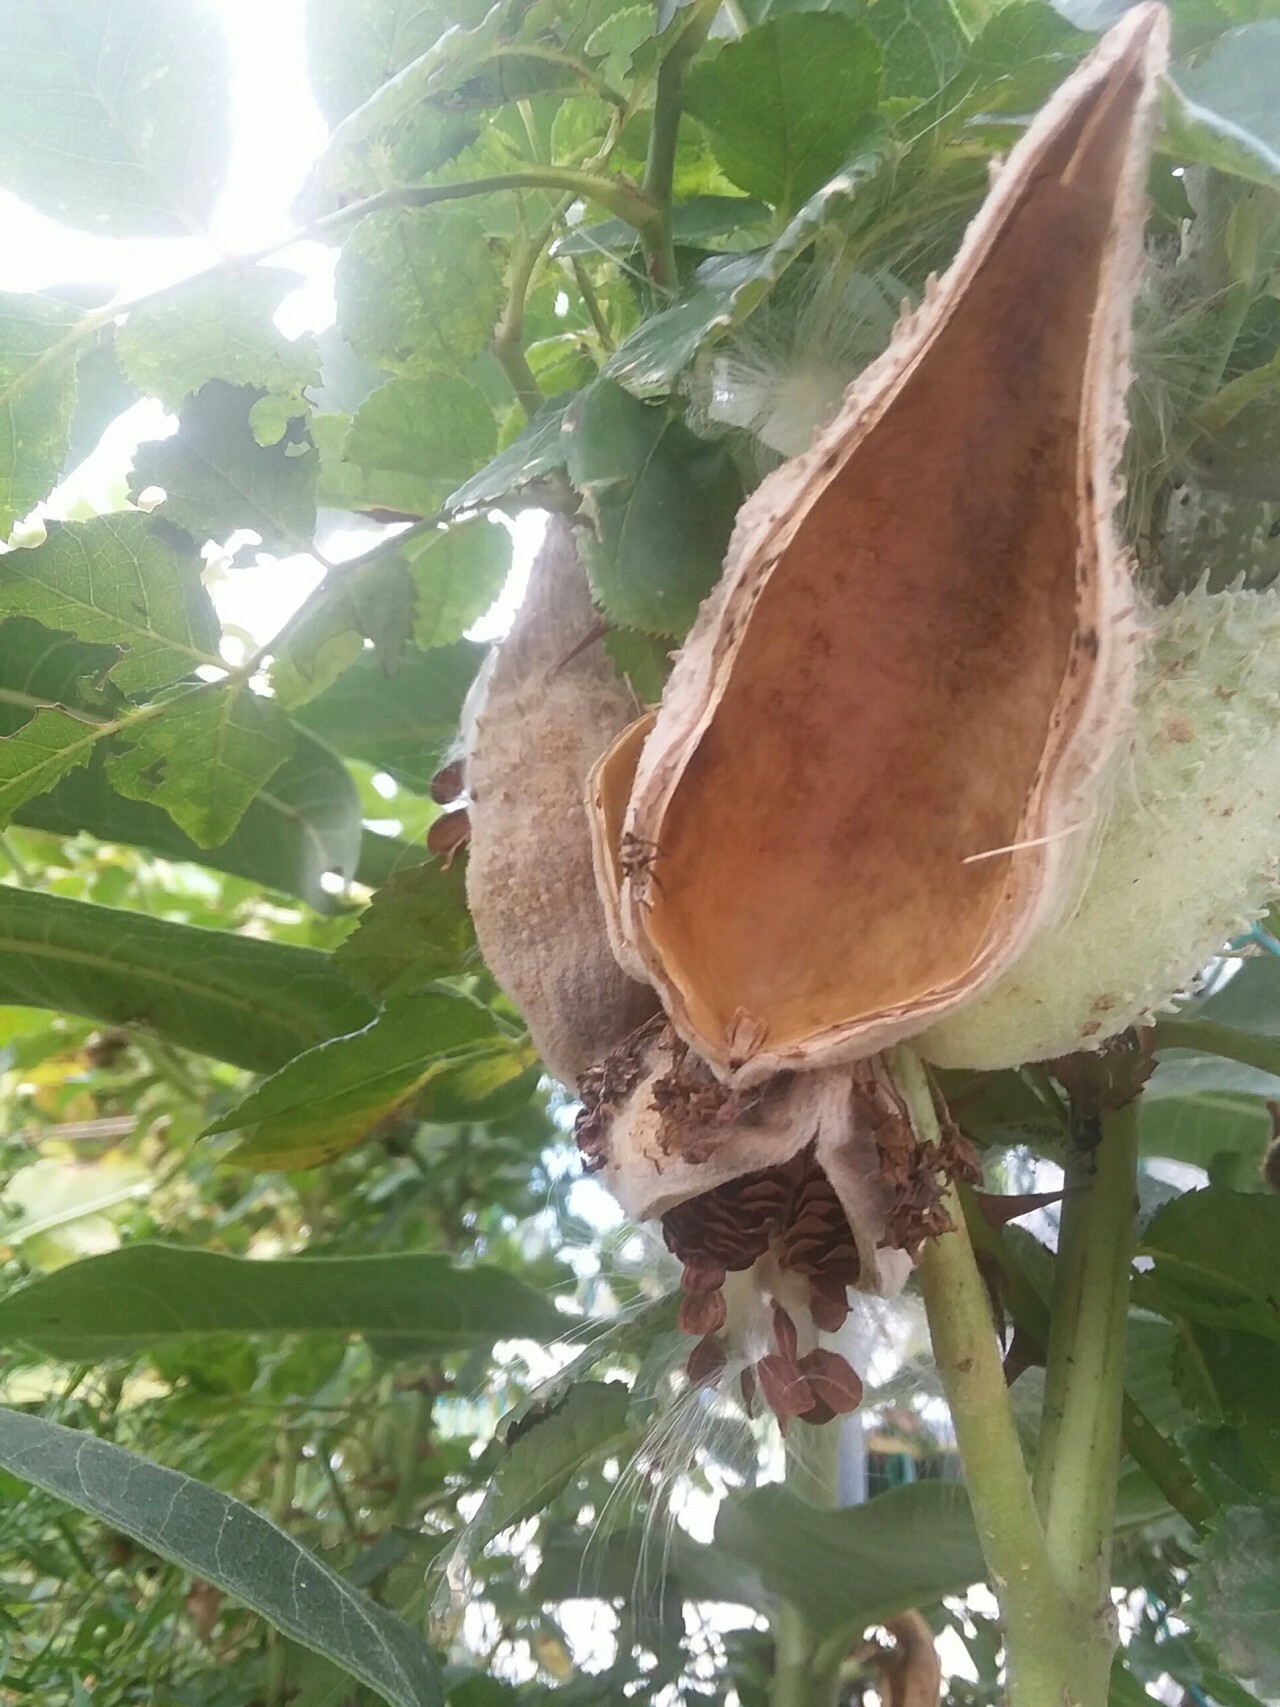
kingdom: Plantae
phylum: Tracheophyta
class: Magnoliopsida
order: Gentianales
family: Apocynaceae
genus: Asclepias
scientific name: Asclepias syriaca
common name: Common milkweed
